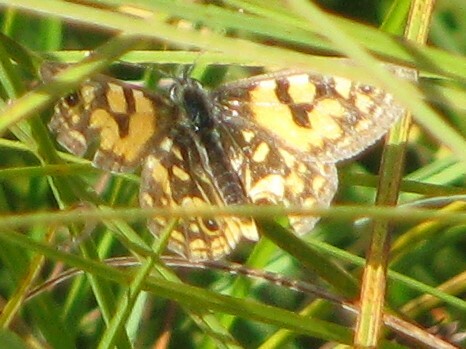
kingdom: Animalia
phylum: Arthropoda
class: Insecta
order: Lepidoptera
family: Nymphalidae
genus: Oreixenica
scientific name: Oreixenica lathoniella
